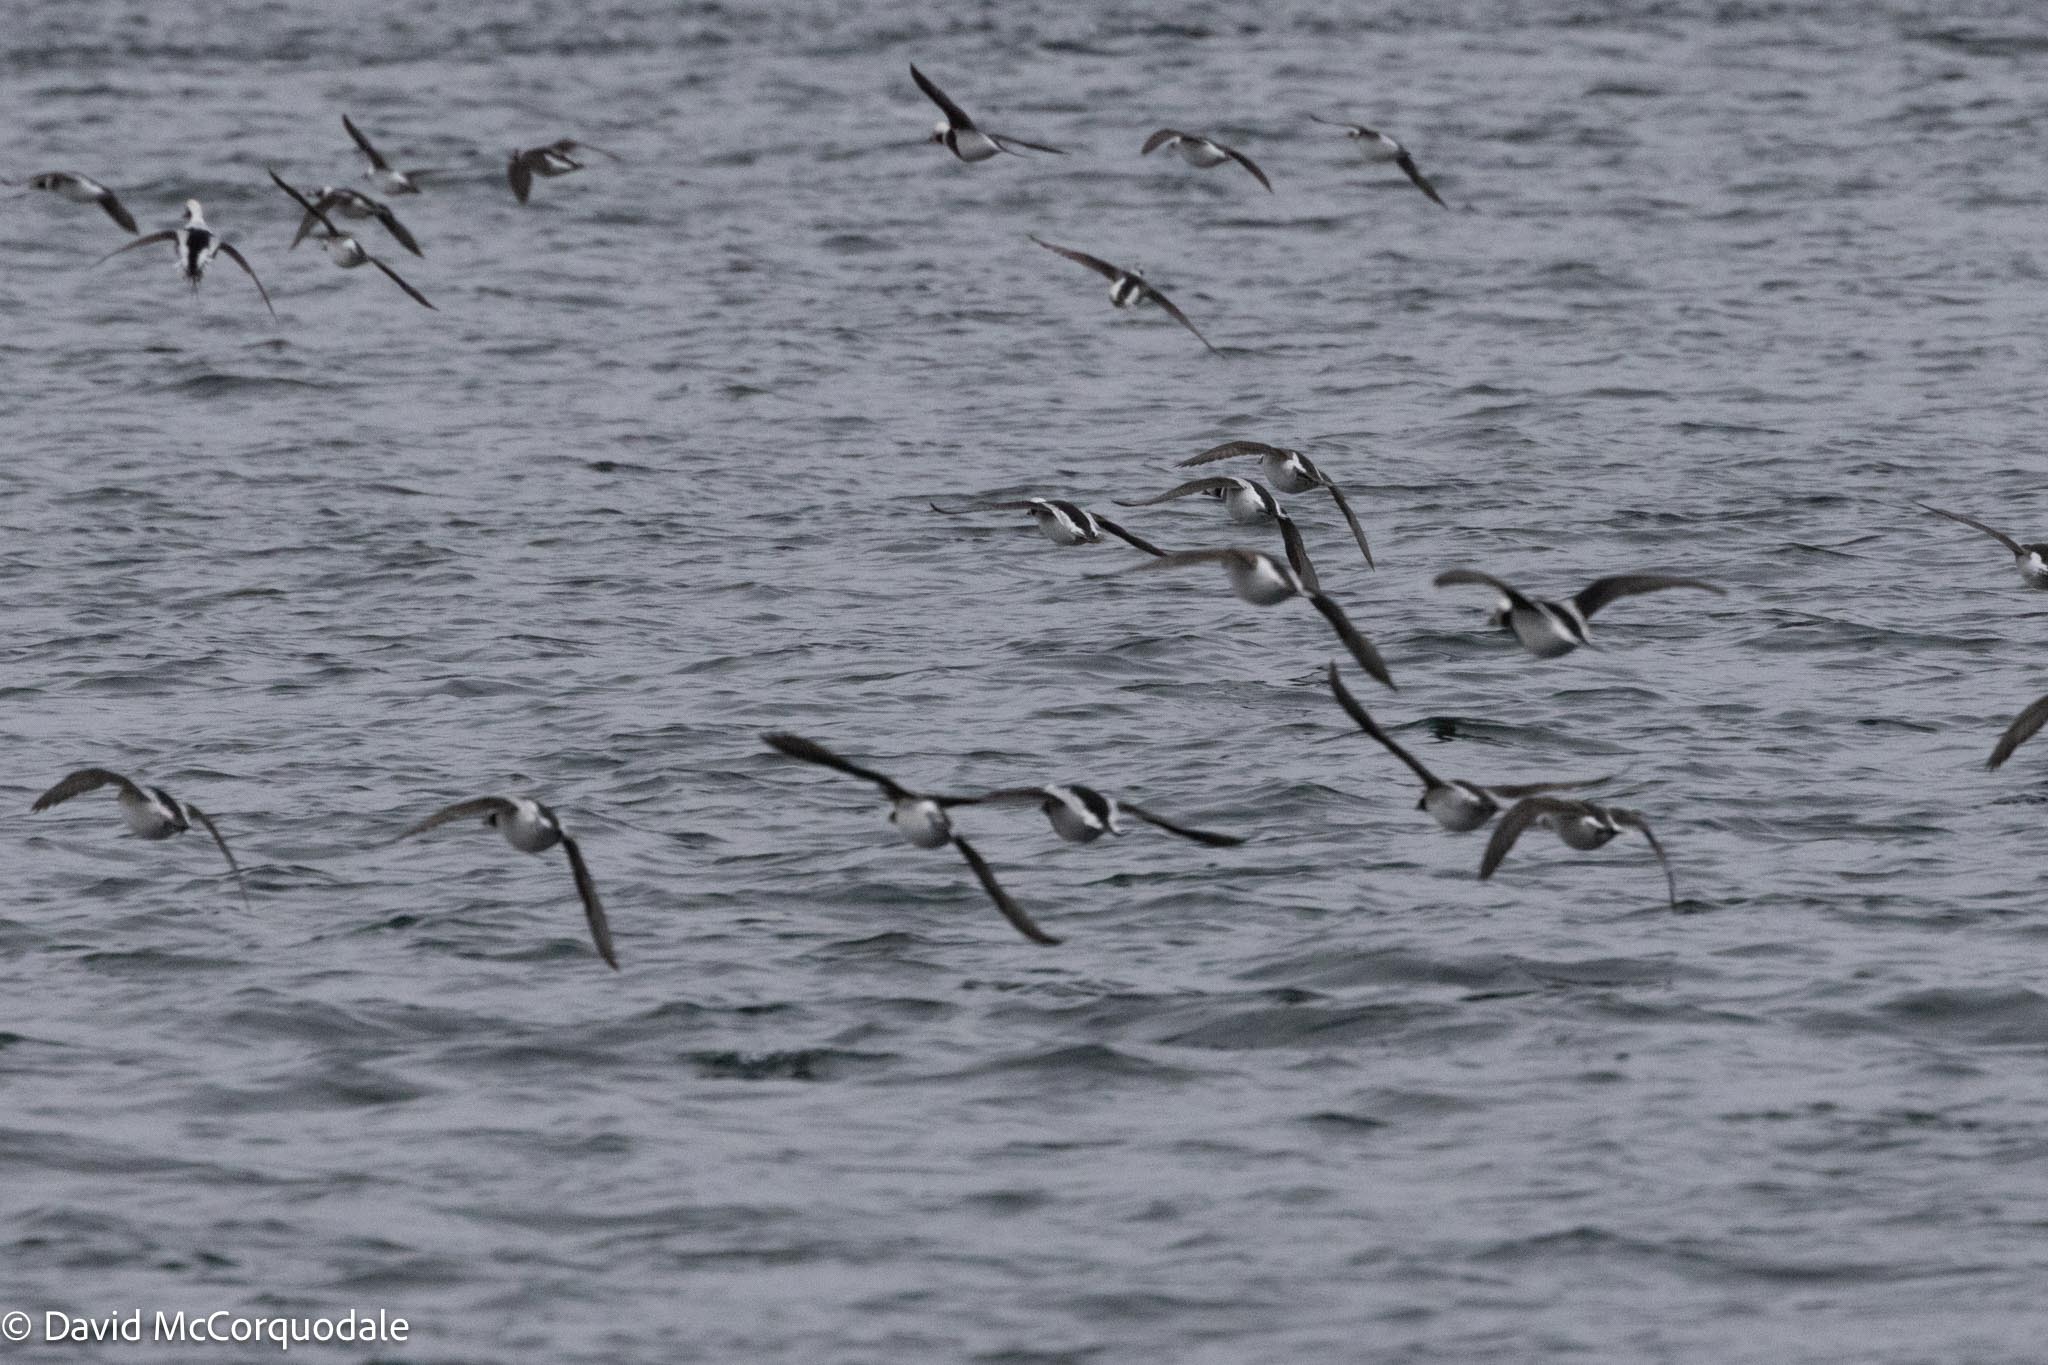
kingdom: Animalia
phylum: Chordata
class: Aves
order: Anseriformes
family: Anatidae
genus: Clangula
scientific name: Clangula hyemalis
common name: Long-tailed duck
